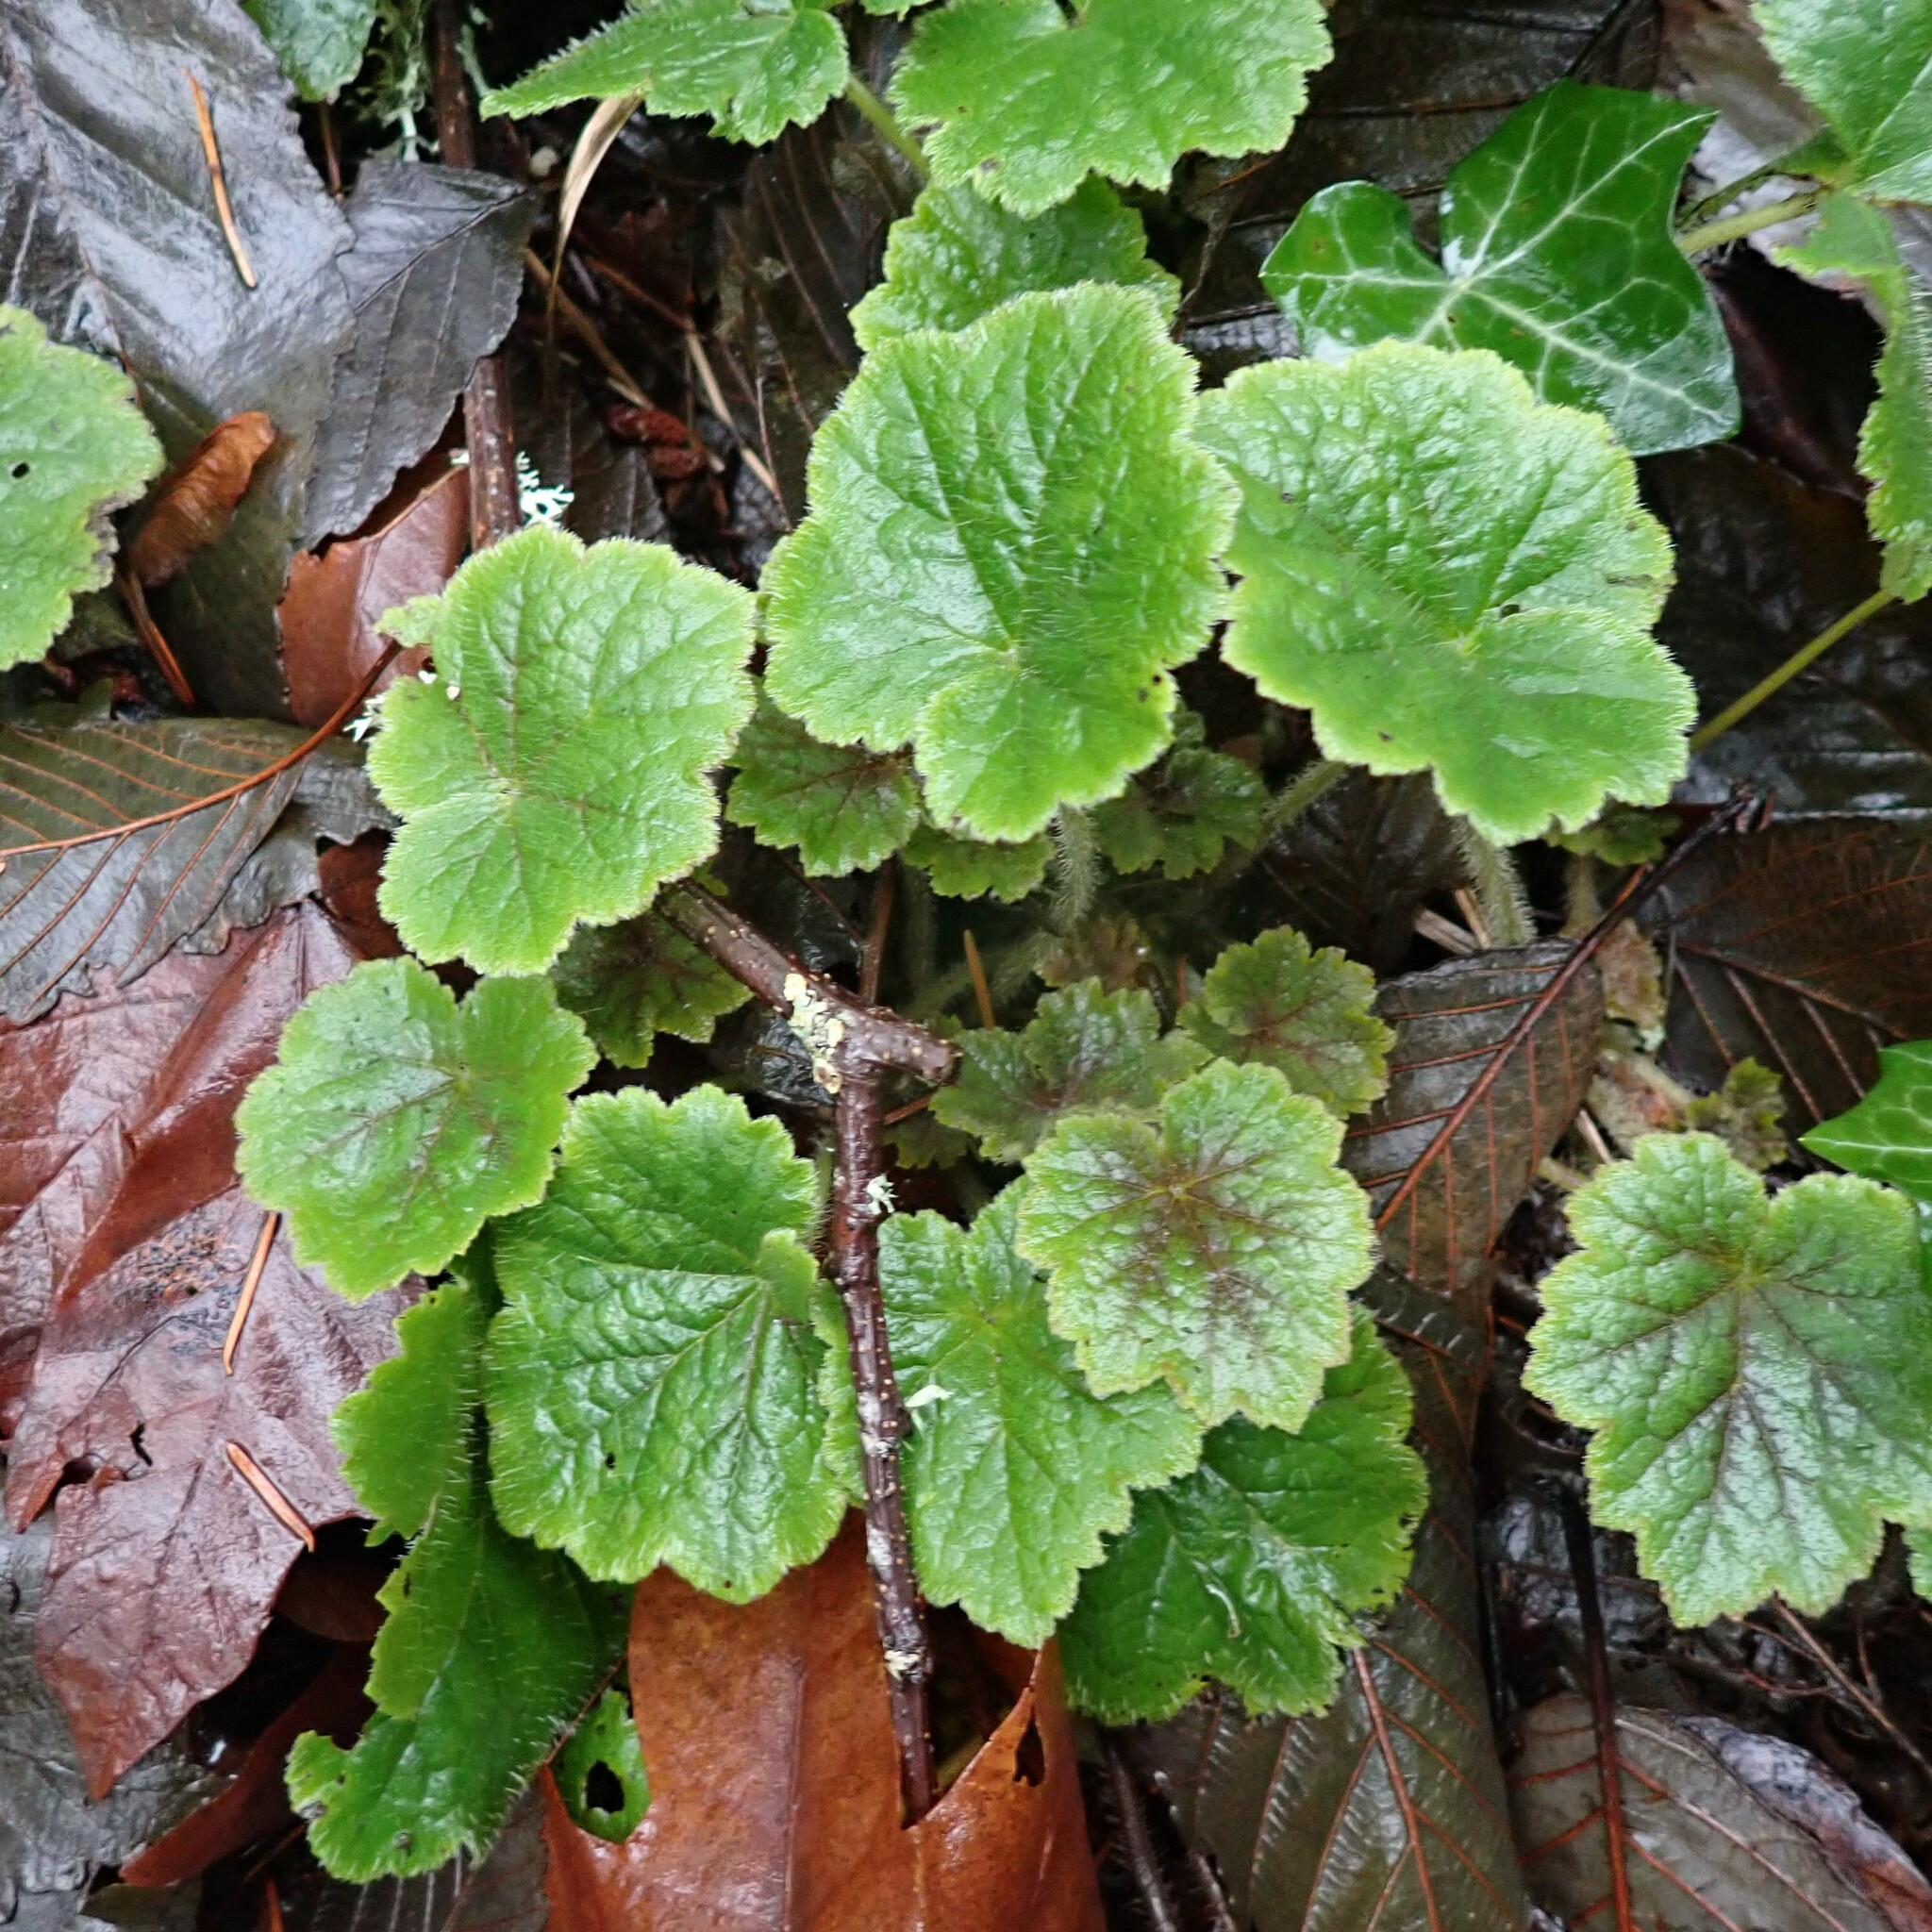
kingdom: Plantae
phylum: Tracheophyta
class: Magnoliopsida
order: Saxifragales
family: Saxifragaceae
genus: Tellima
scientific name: Tellima grandiflora
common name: Fringecups
